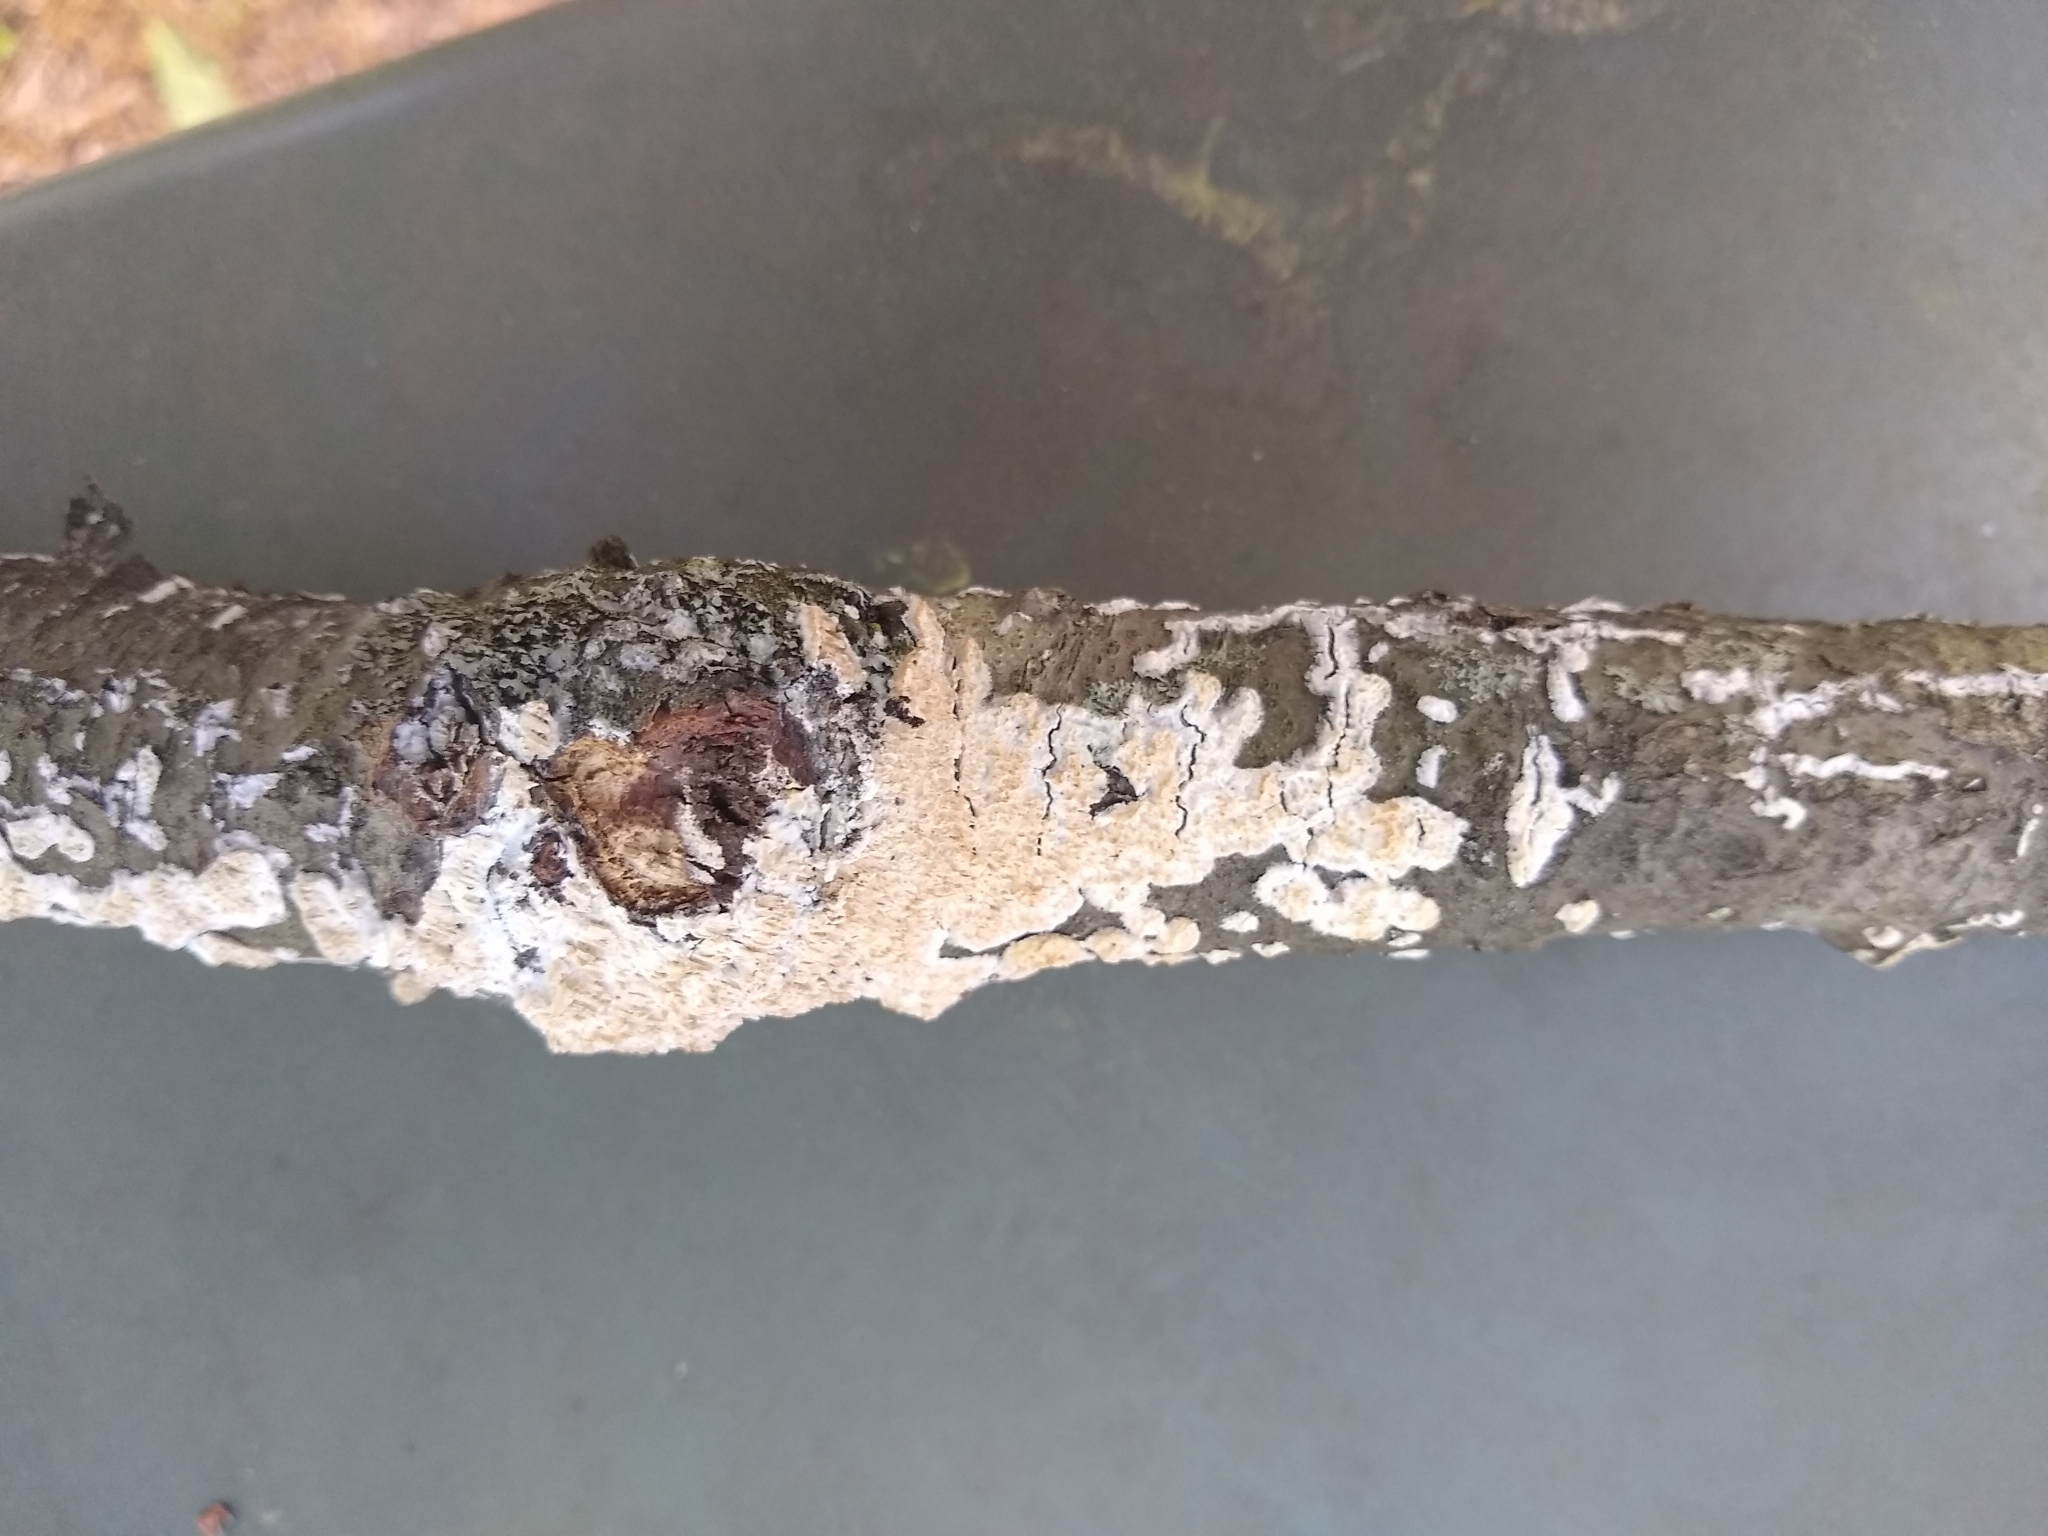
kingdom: Fungi
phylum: Basidiomycota
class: Agaricomycetes
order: Polyporales
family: Irpicaceae
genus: Irpex
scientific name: Irpex lacteus
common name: Milk-white toothed polypore
